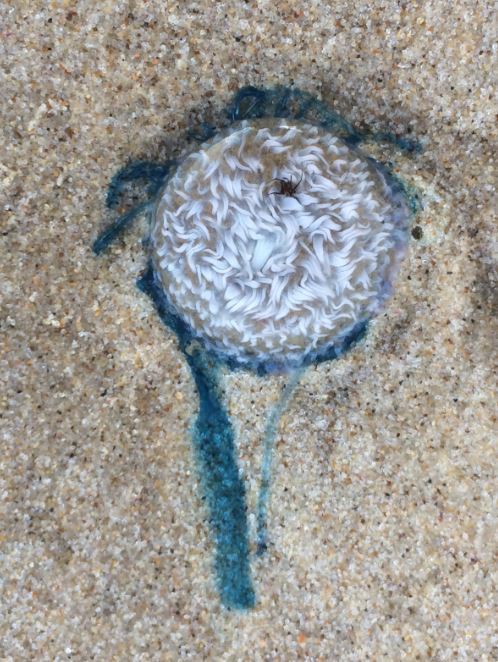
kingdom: Animalia
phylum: Cnidaria
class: Hydrozoa
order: Anthoathecata
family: Porpitidae
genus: Porpita
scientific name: Porpita porpita
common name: Blue button
